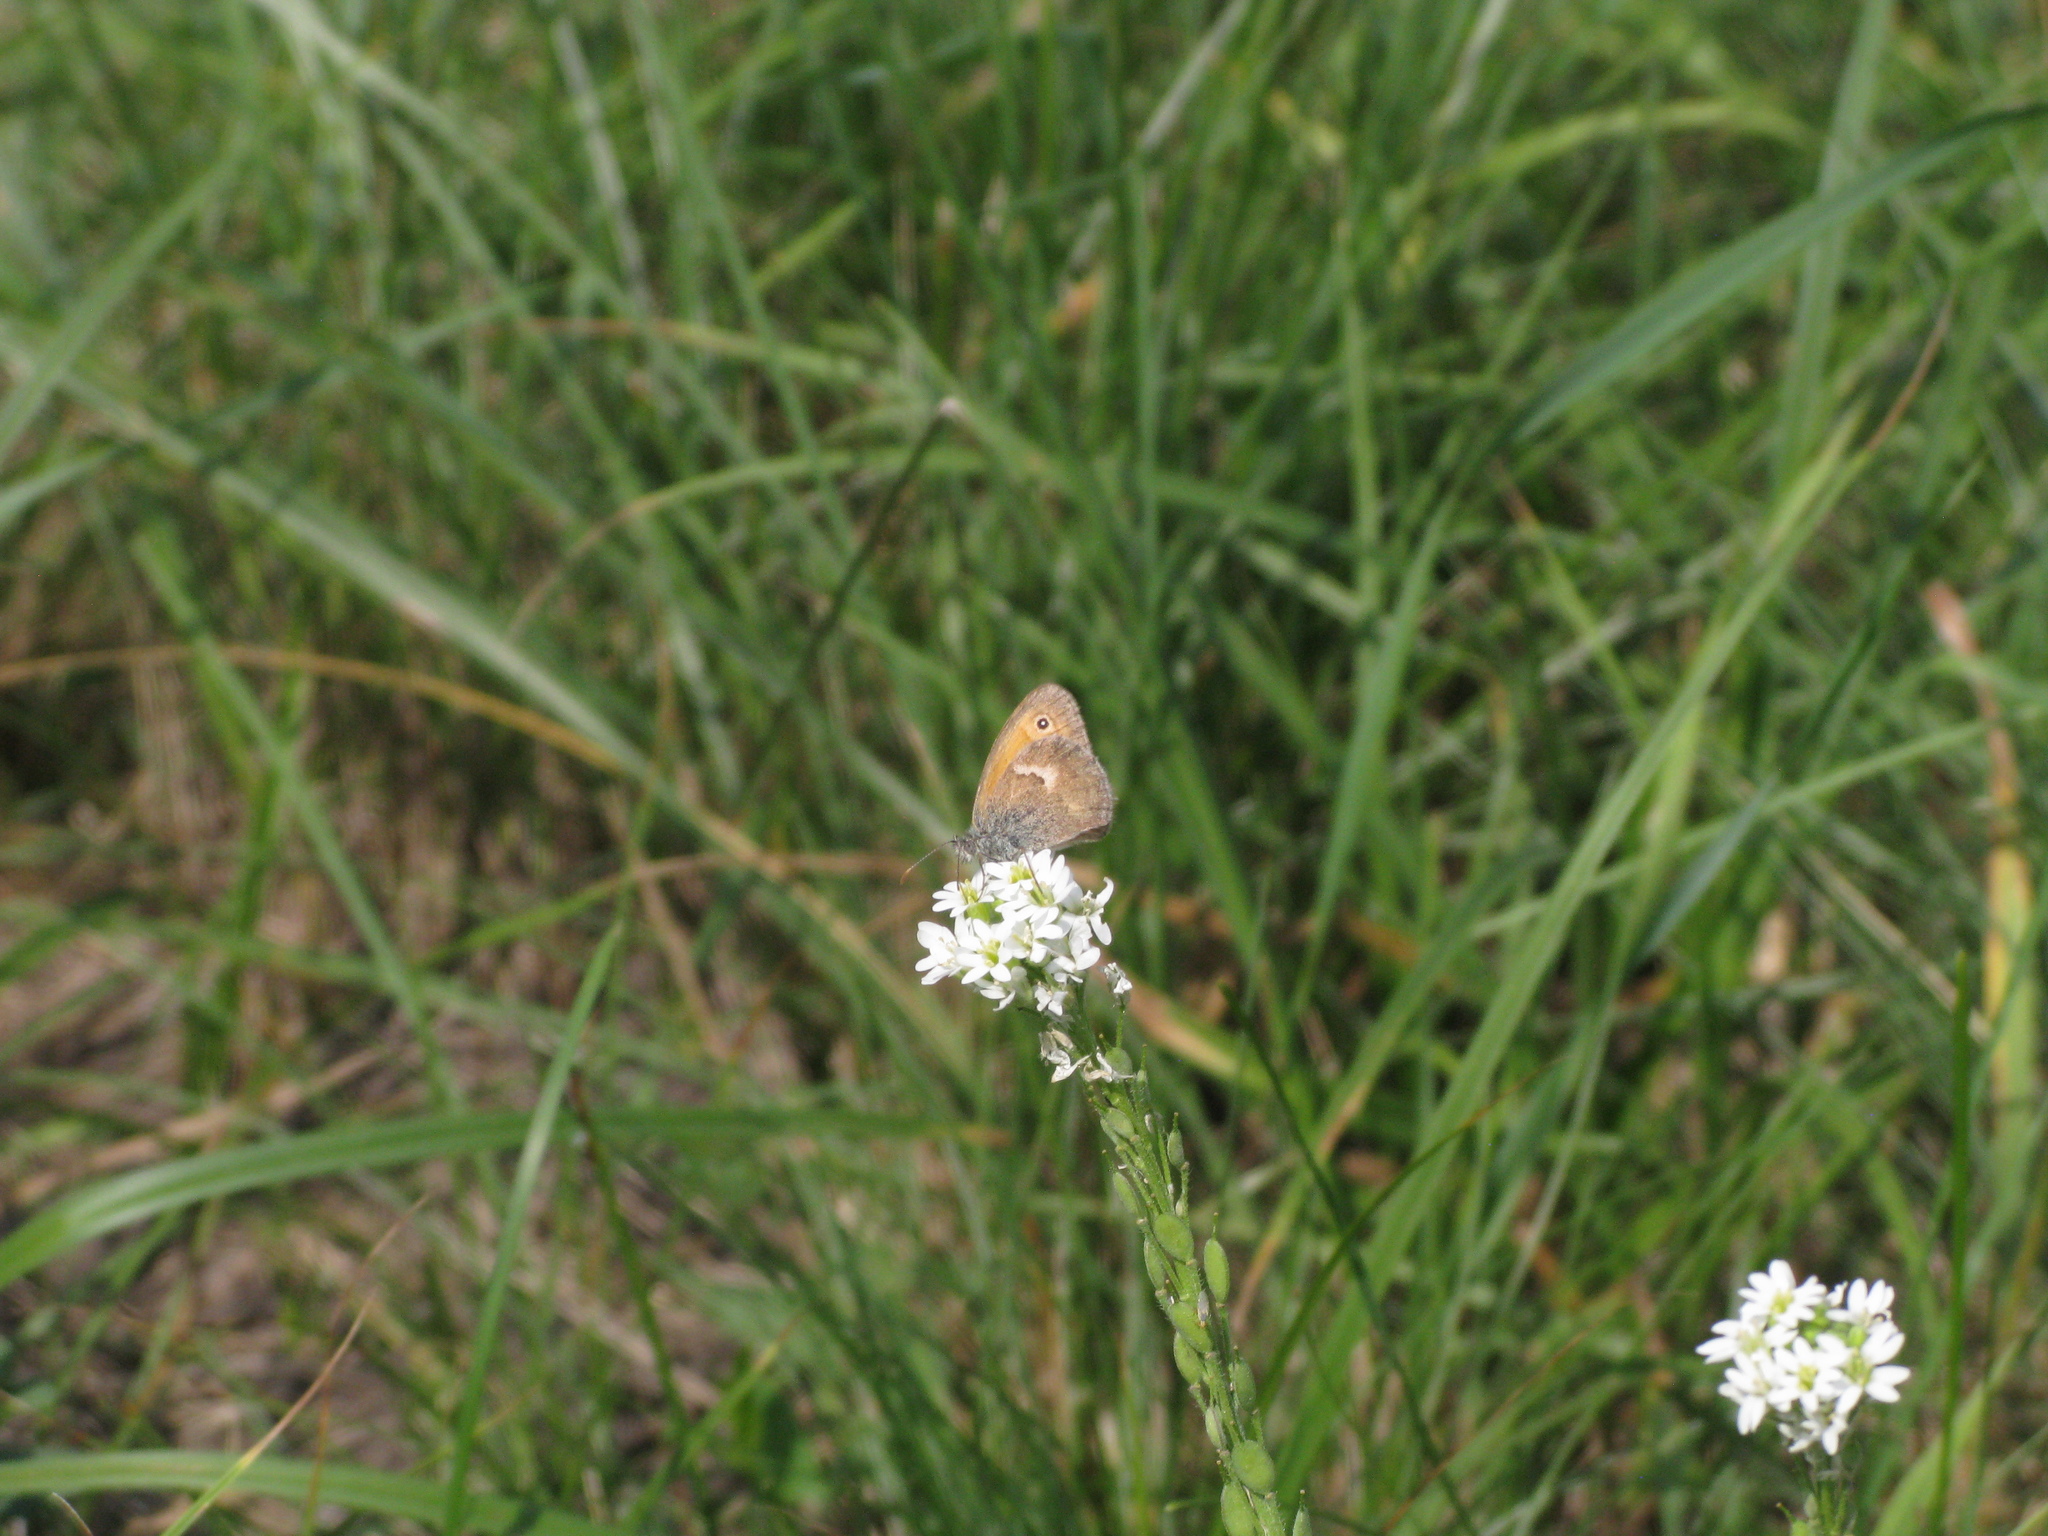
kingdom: Animalia
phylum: Arthropoda
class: Insecta
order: Lepidoptera
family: Nymphalidae
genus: Coenonympha
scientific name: Coenonympha pamphilus
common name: Small heath
